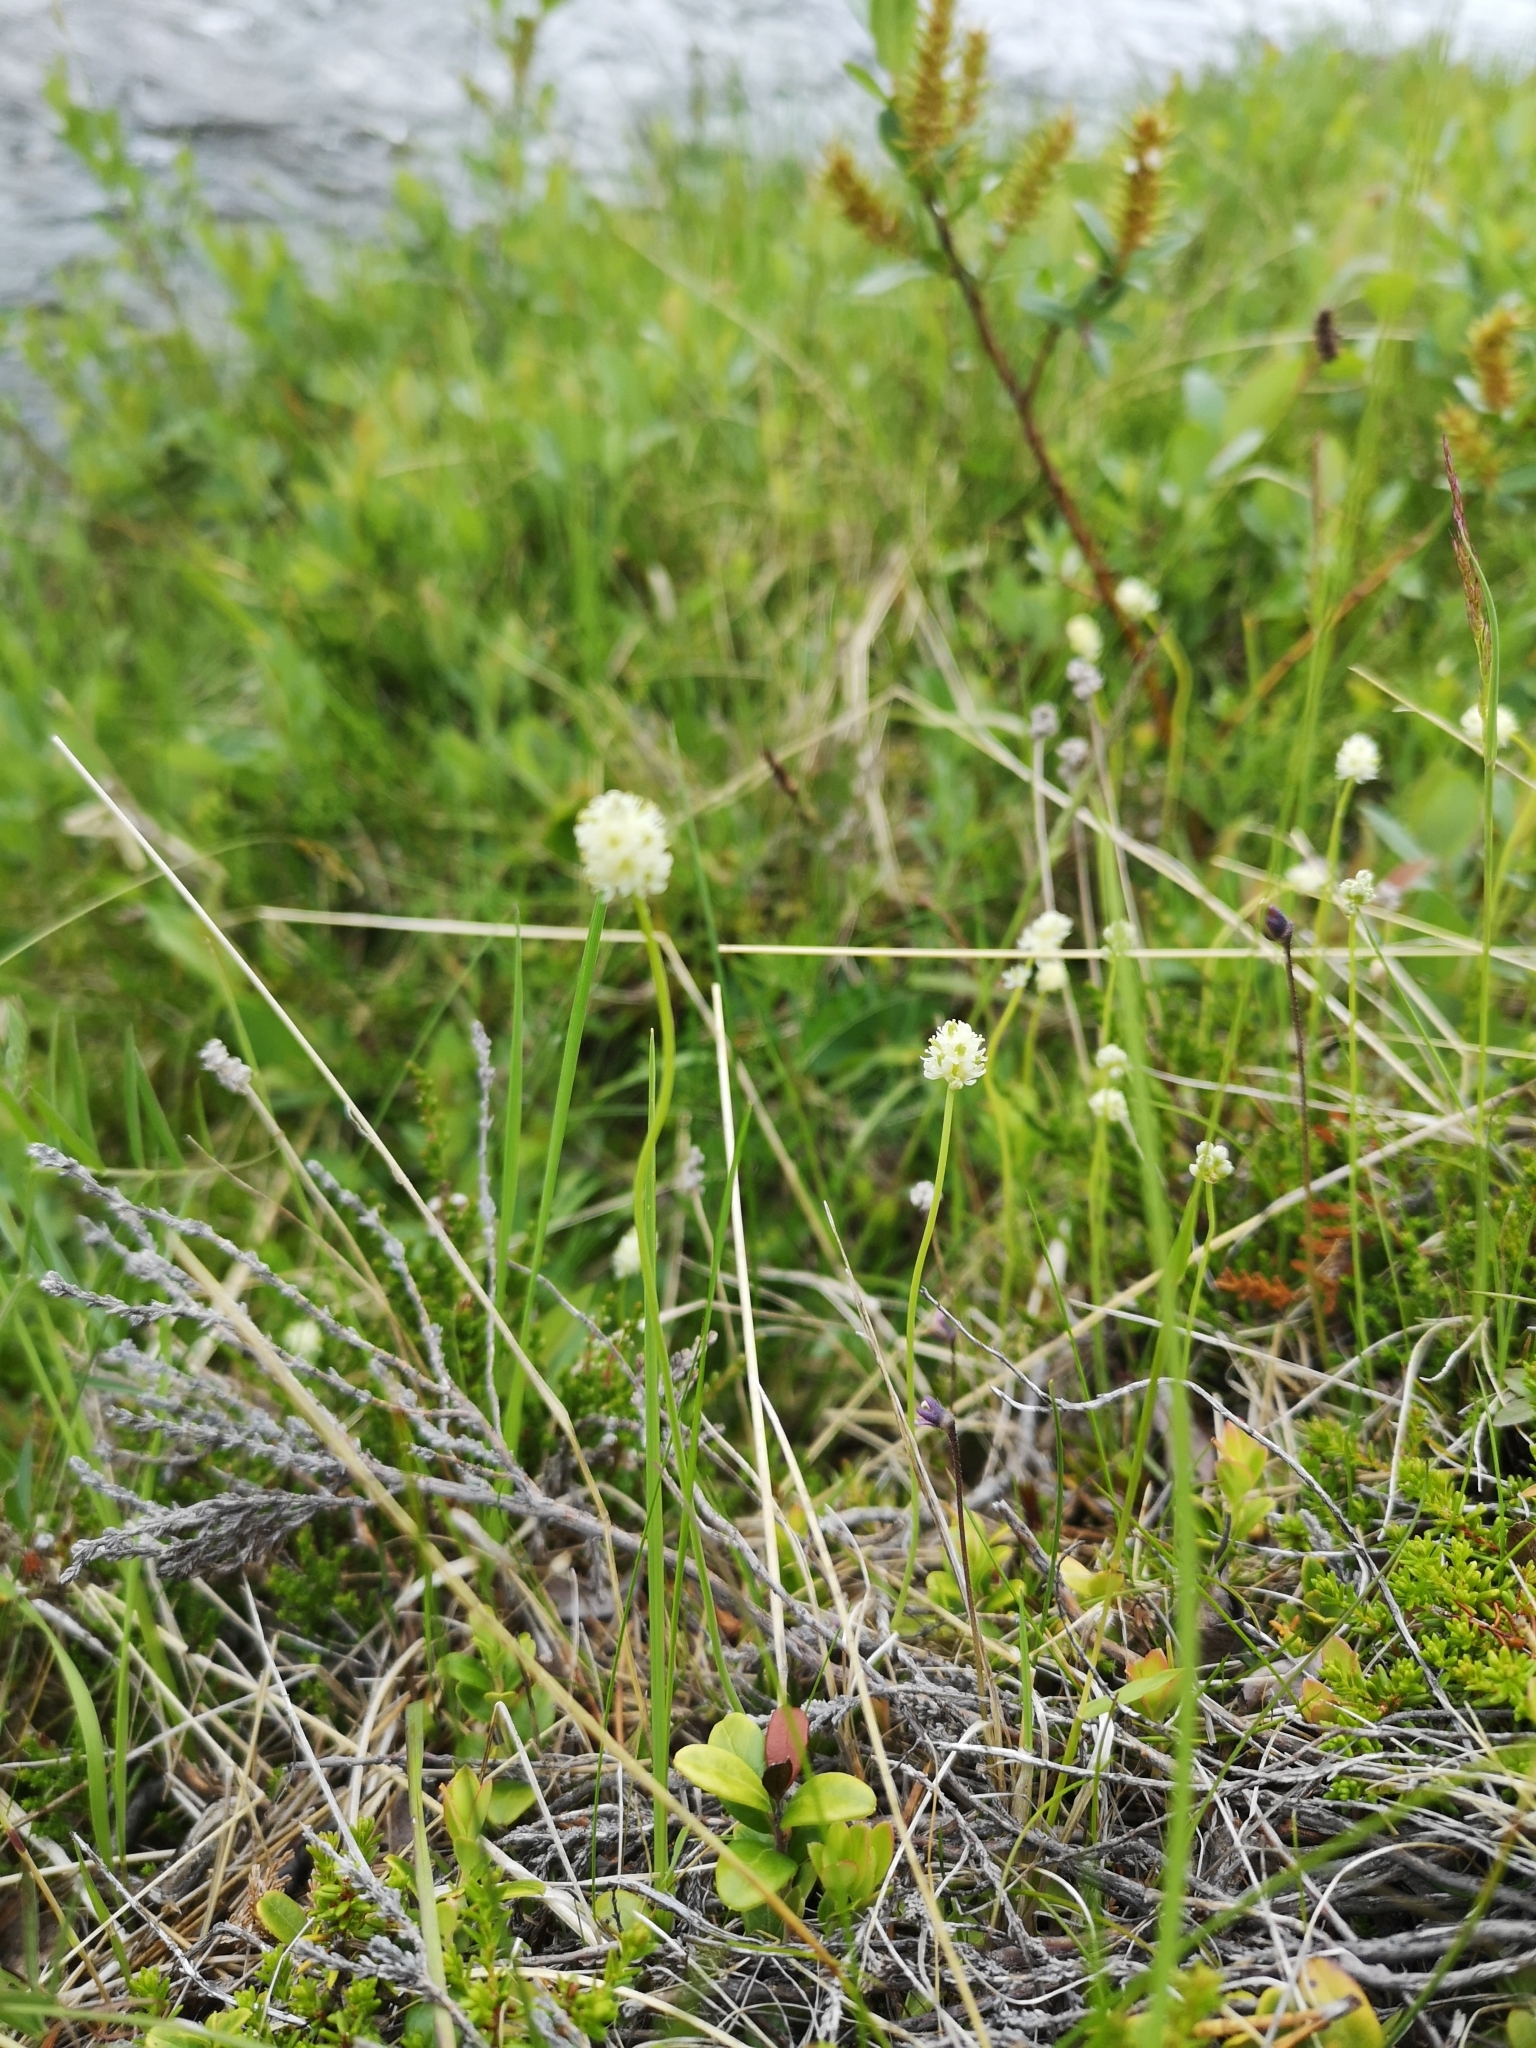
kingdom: Plantae
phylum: Tracheophyta
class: Liliopsida
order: Alismatales
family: Tofieldiaceae
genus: Tofieldia
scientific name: Tofieldia pusilla
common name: Scottish false asphodel
